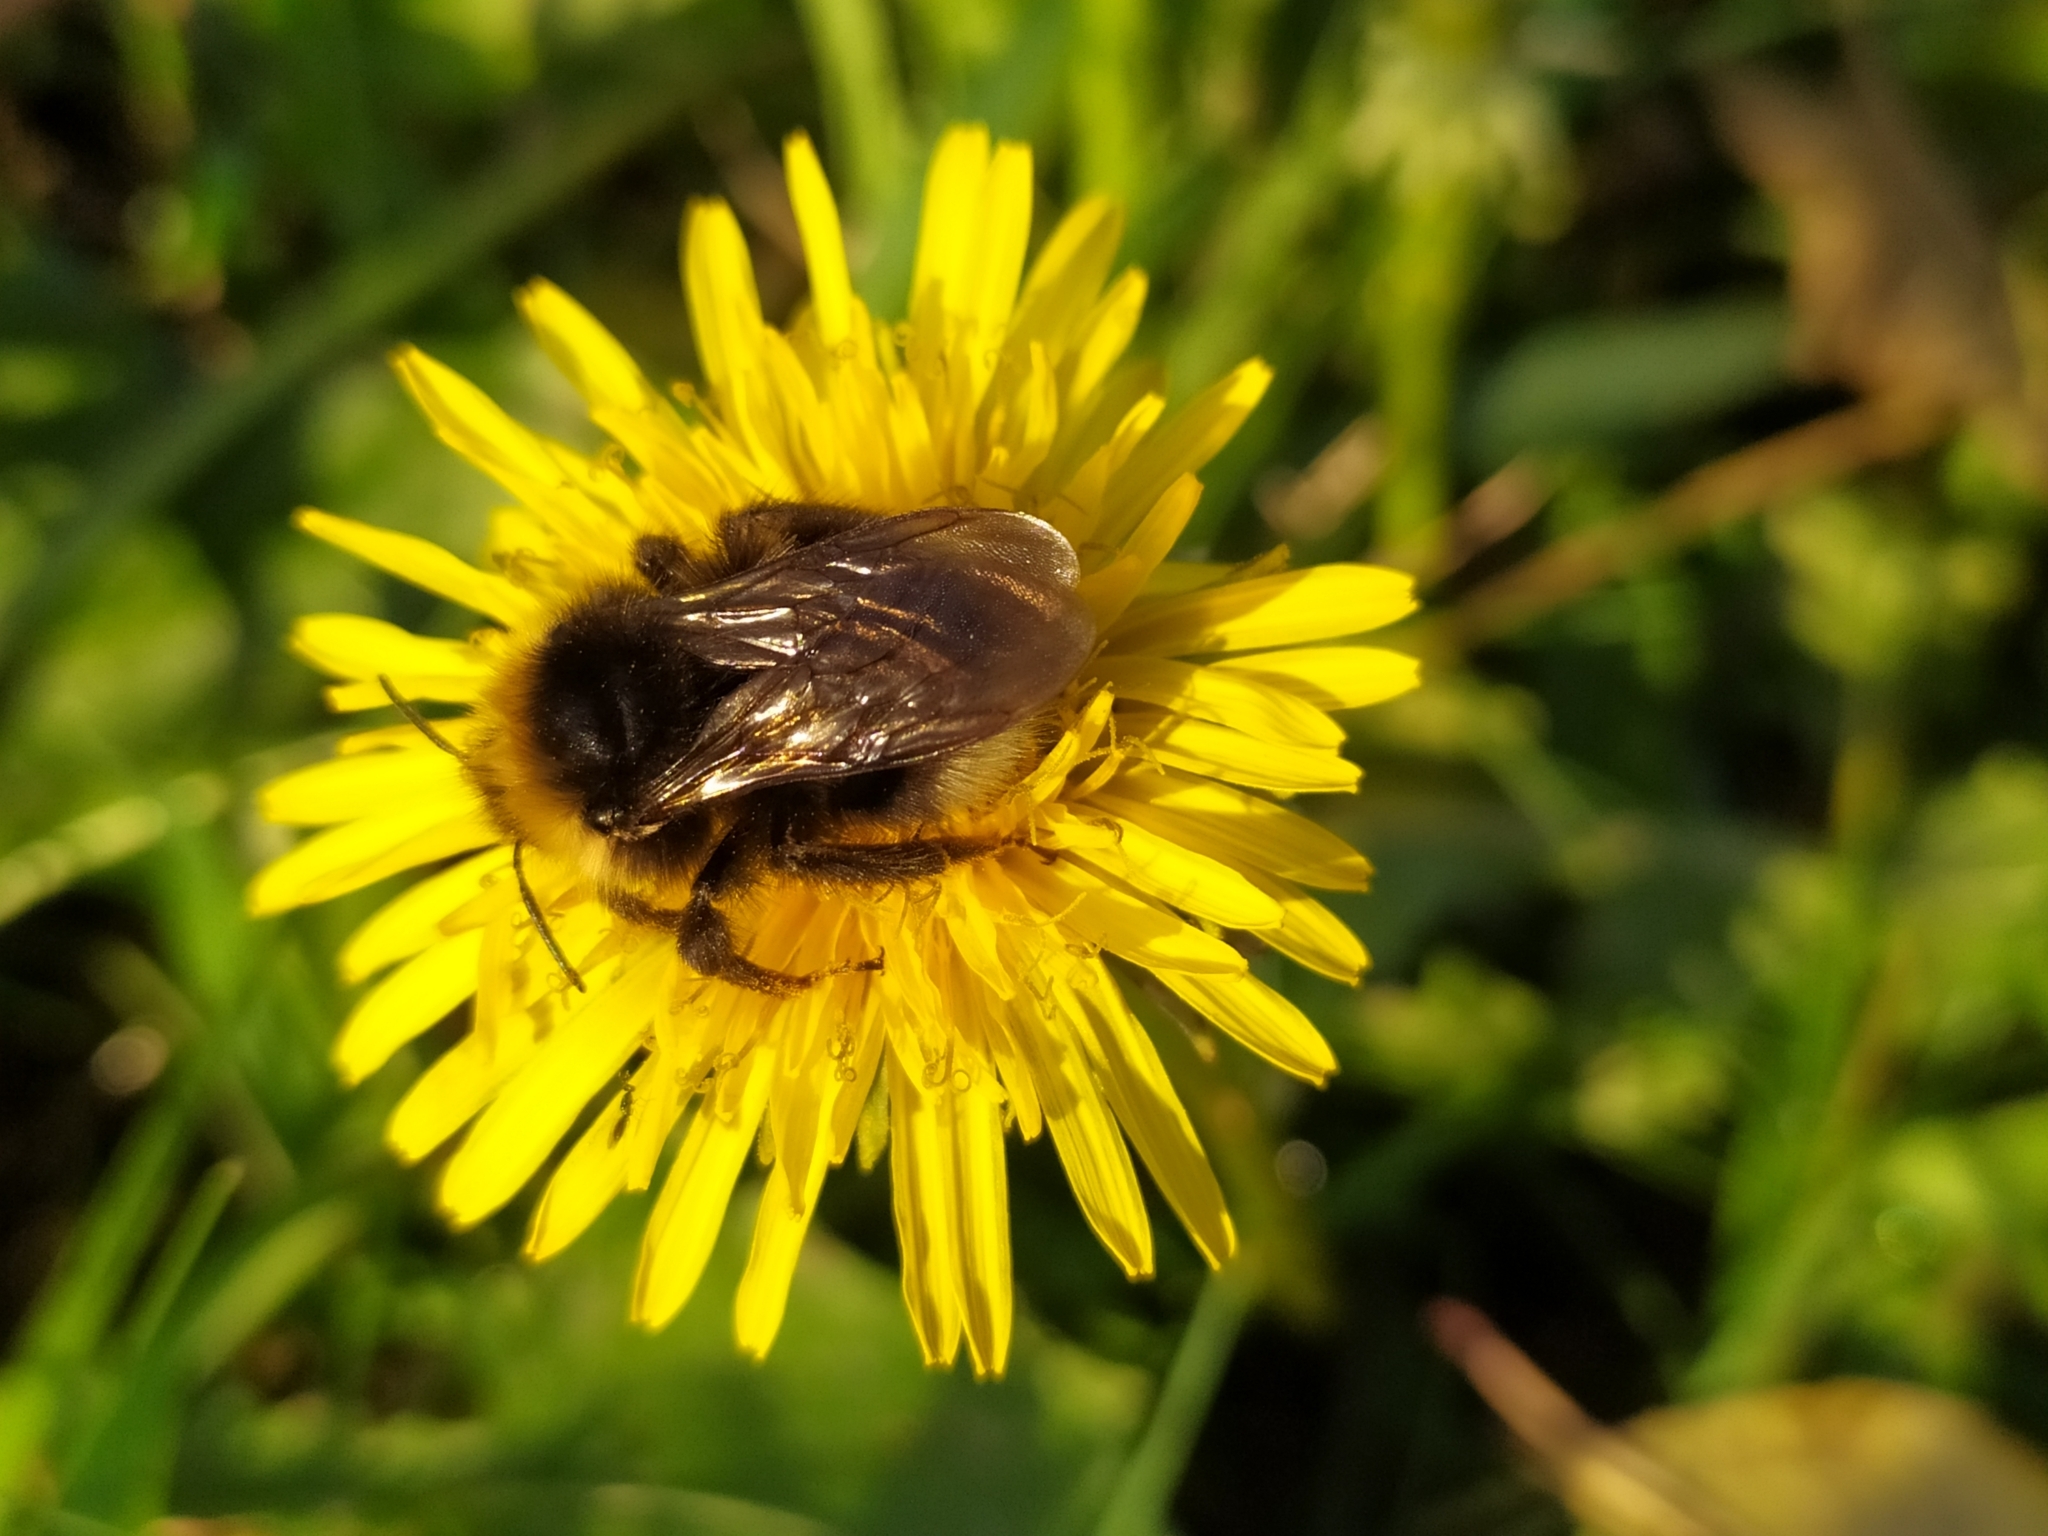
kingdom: Plantae
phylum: Tracheophyta
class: Magnoliopsida
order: Asterales
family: Asteraceae
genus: Taraxacum
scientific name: Taraxacum officinale
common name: Common dandelion
